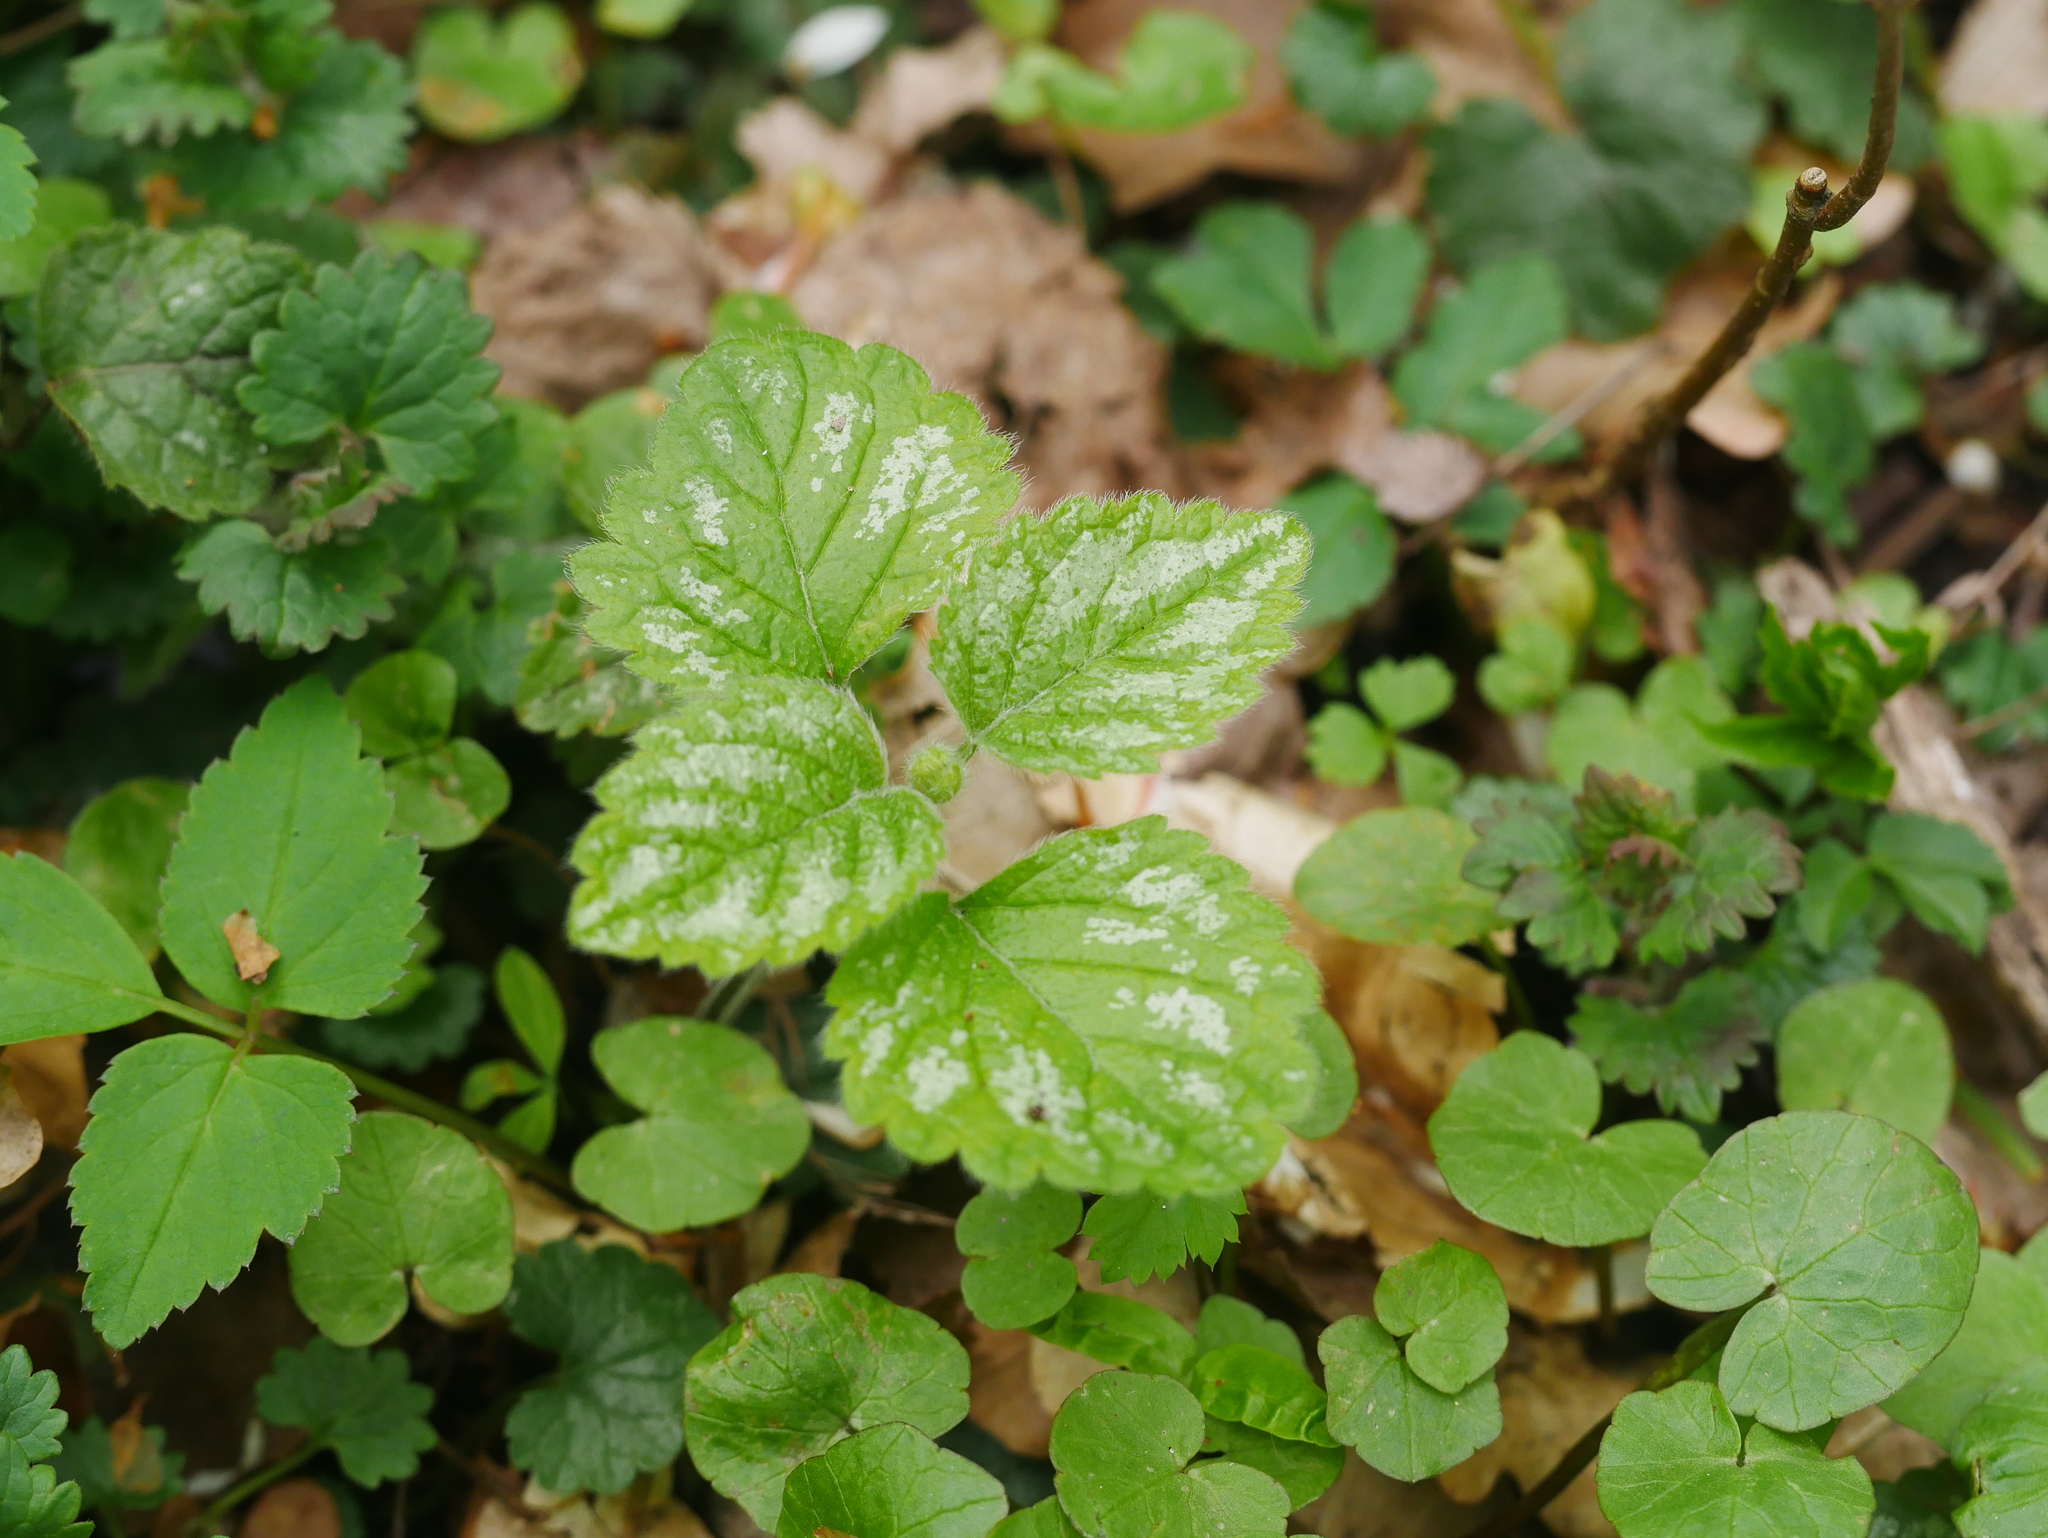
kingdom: Plantae
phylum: Tracheophyta
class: Magnoliopsida
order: Lamiales
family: Lamiaceae
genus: Lamium
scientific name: Lamium galeobdolon
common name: Yellow archangel
